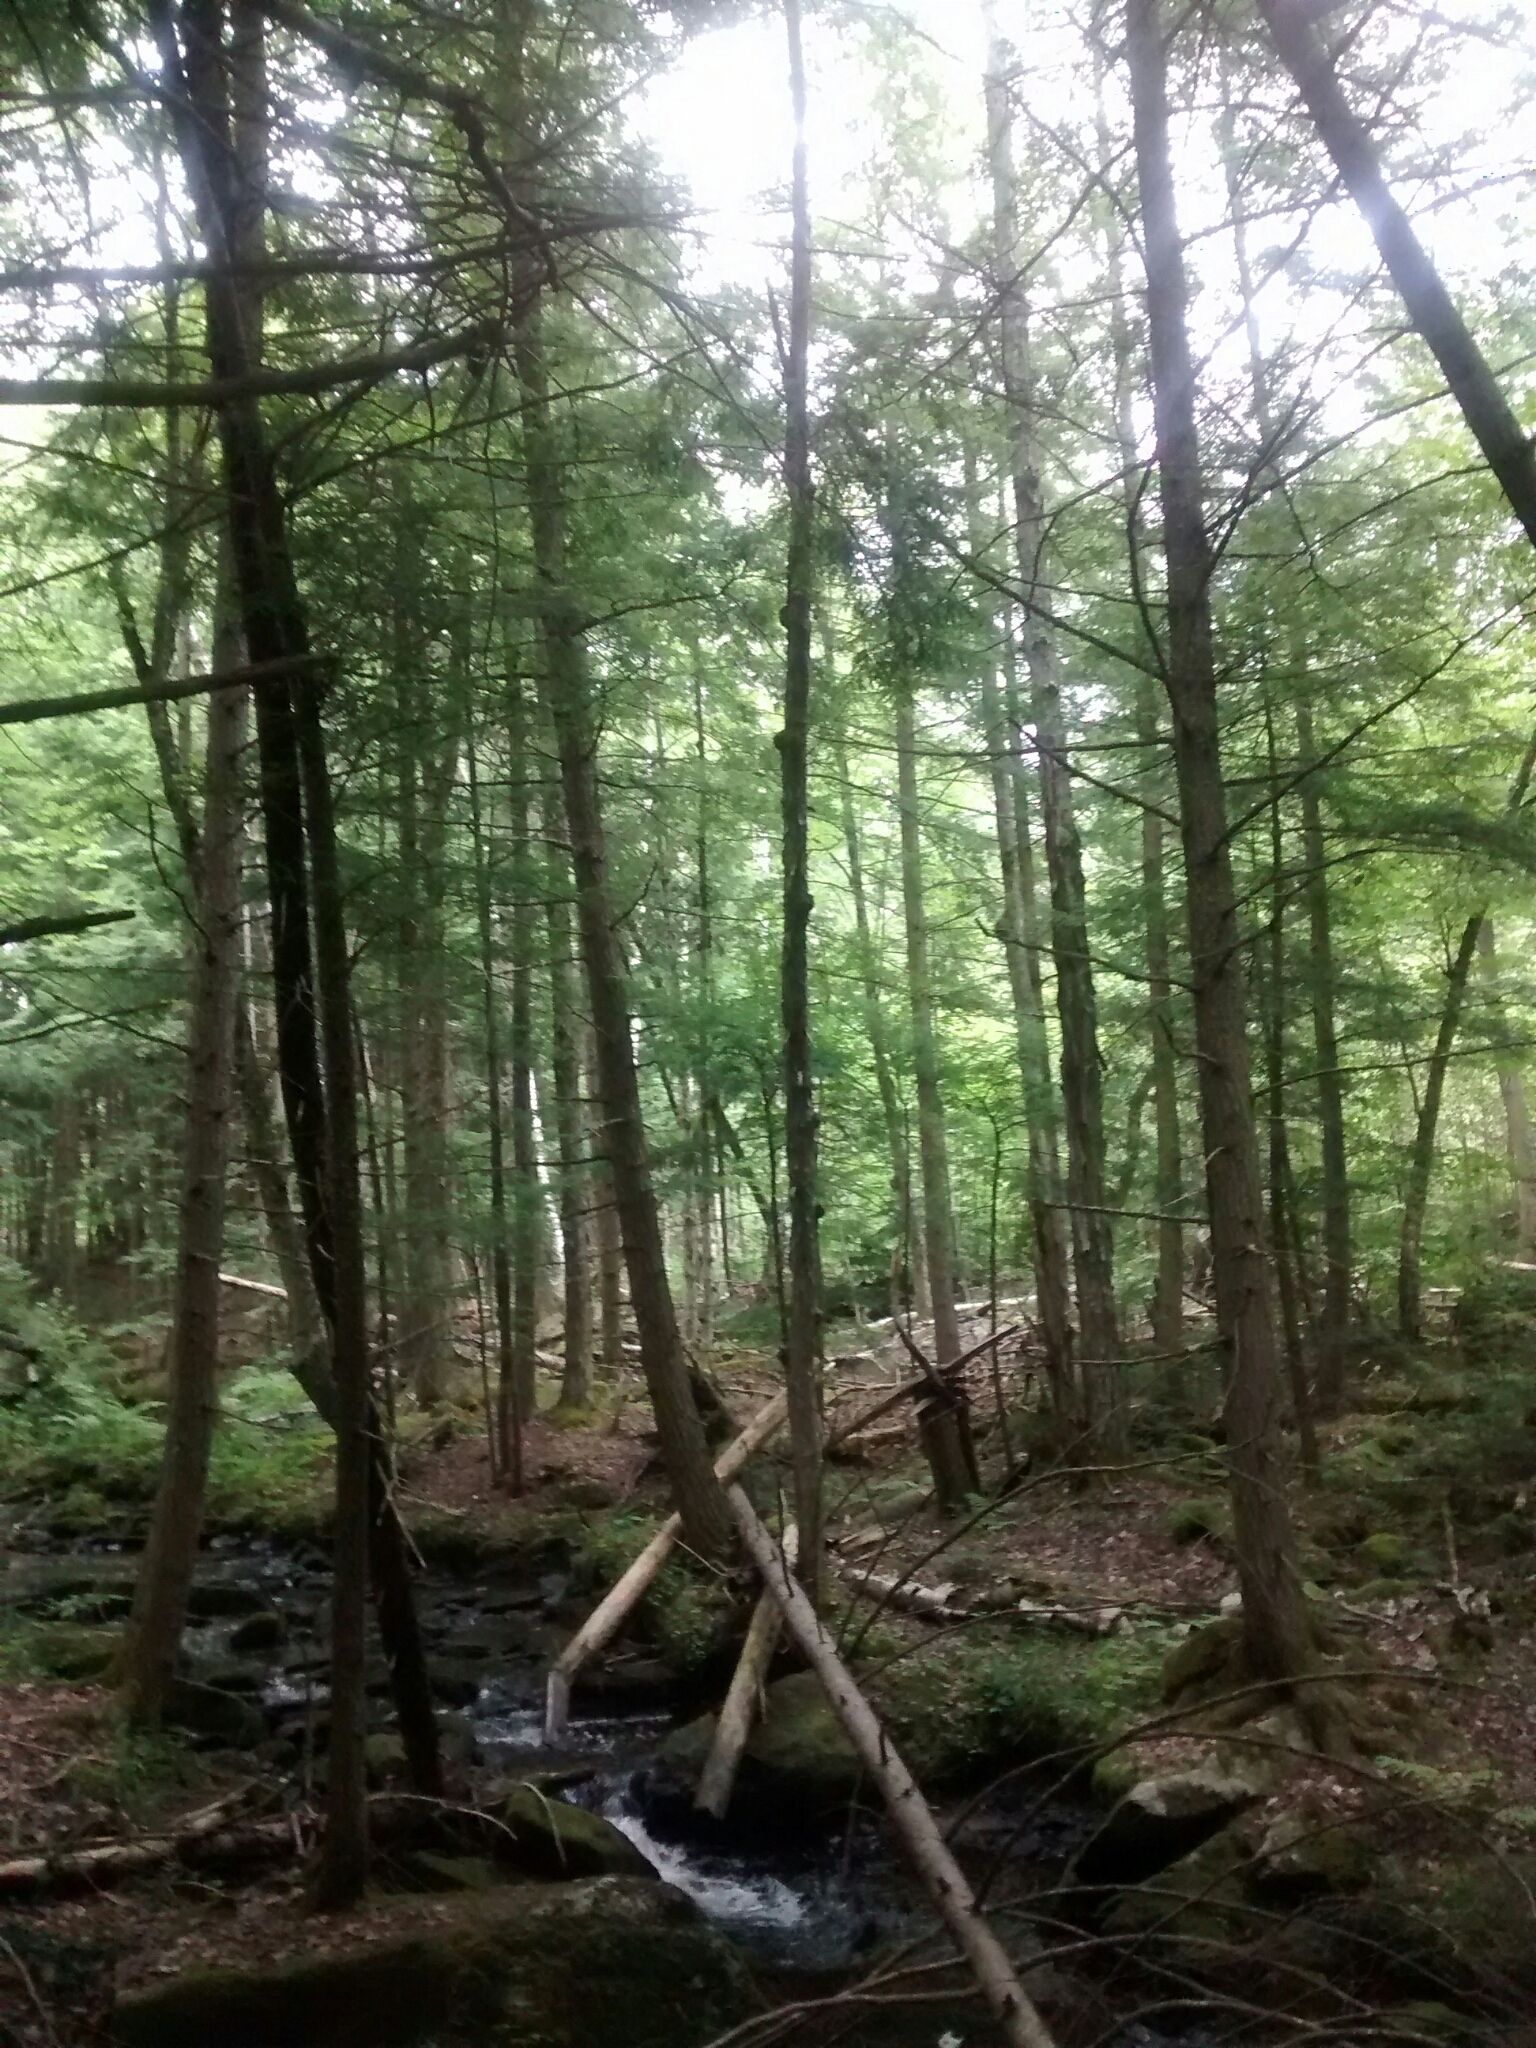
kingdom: Plantae
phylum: Tracheophyta
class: Pinopsida
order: Pinales
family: Pinaceae
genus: Tsuga
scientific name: Tsuga canadensis
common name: Eastern hemlock
